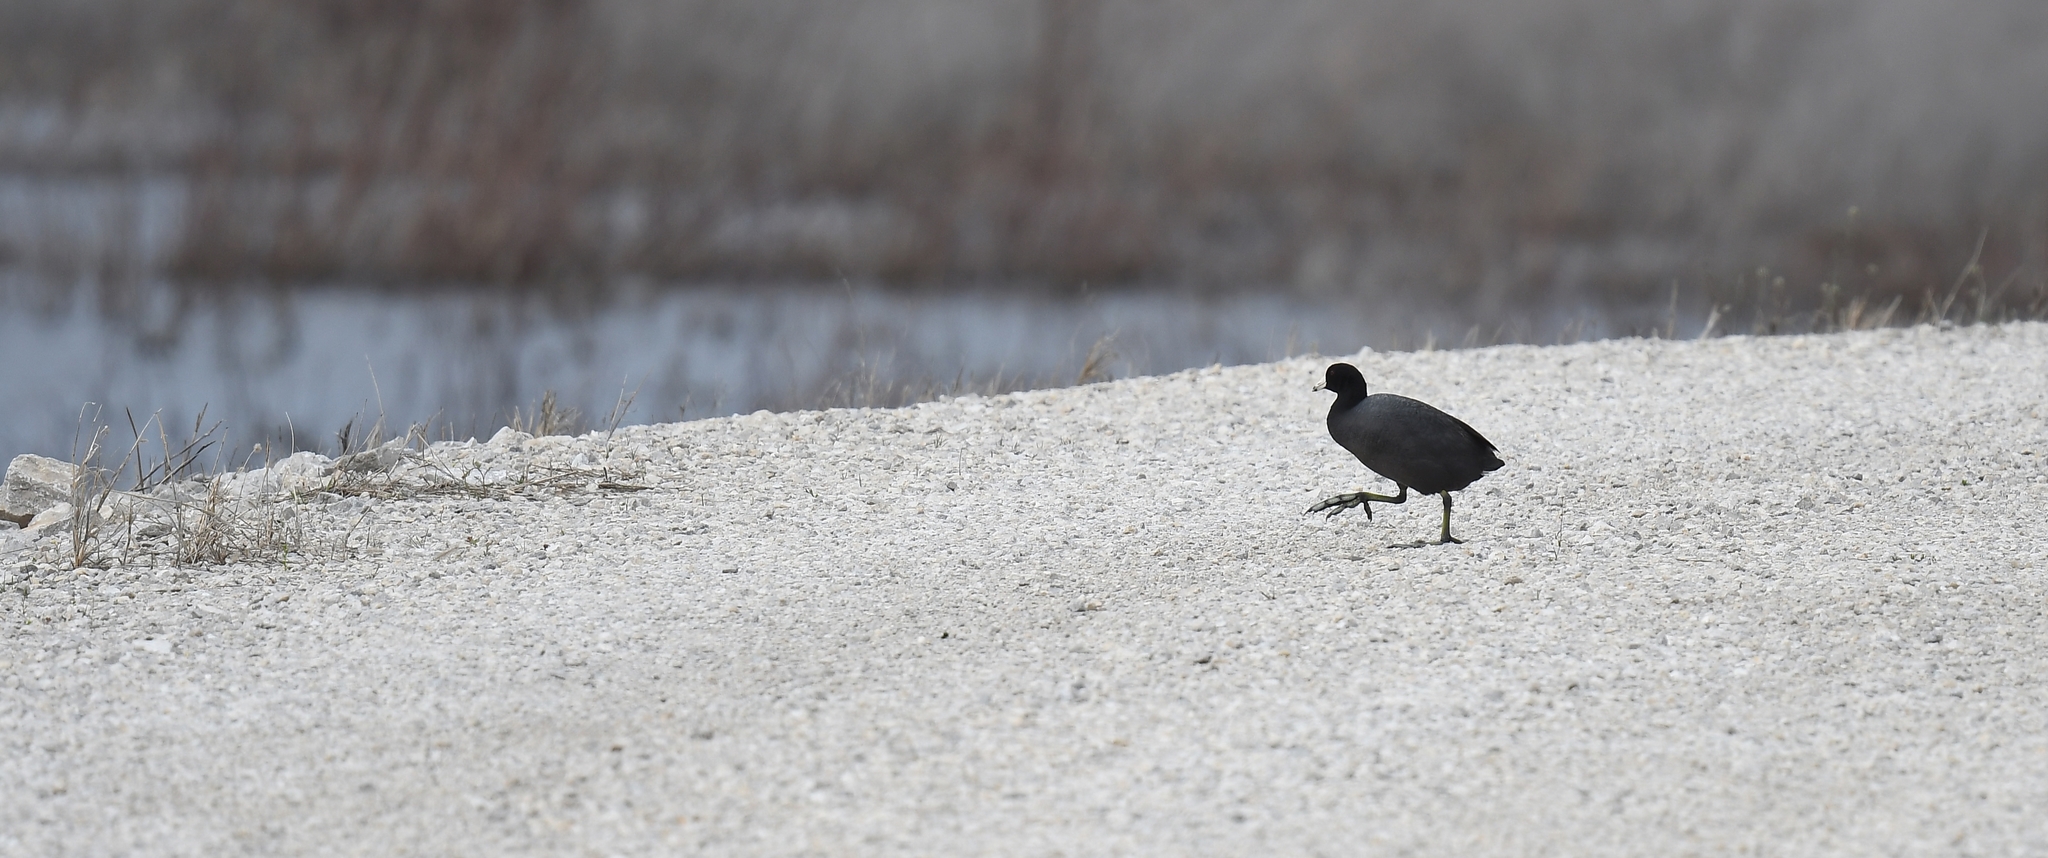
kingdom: Animalia
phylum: Chordata
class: Aves
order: Gruiformes
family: Rallidae
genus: Fulica
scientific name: Fulica americana
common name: American coot
